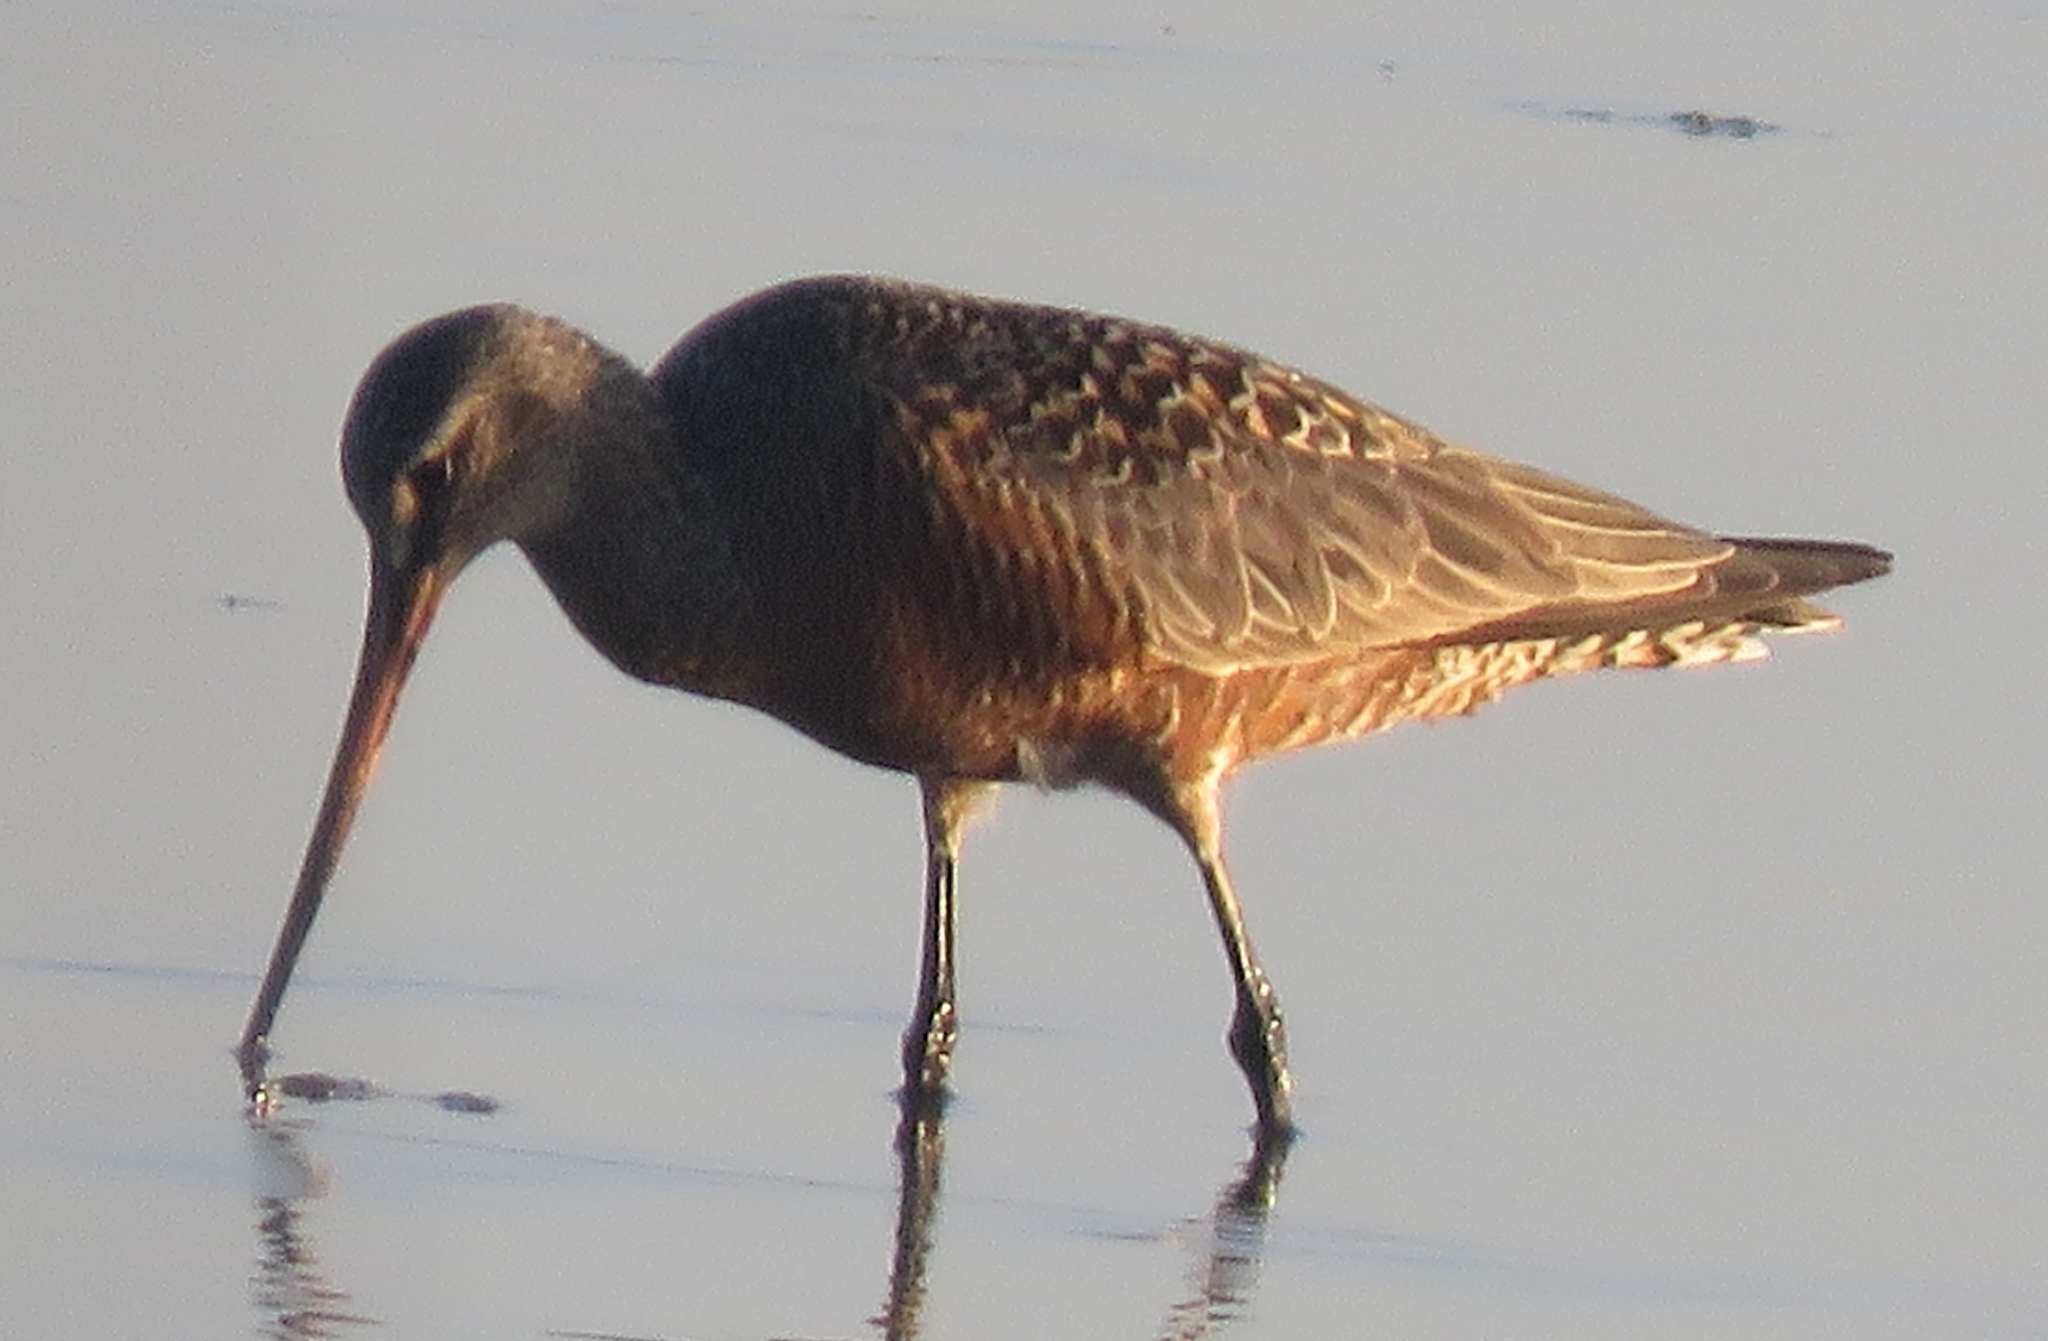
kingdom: Animalia
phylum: Chordata
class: Aves
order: Charadriiformes
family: Scolopacidae
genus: Limosa
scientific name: Limosa haemastica
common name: Hudsonian godwit
